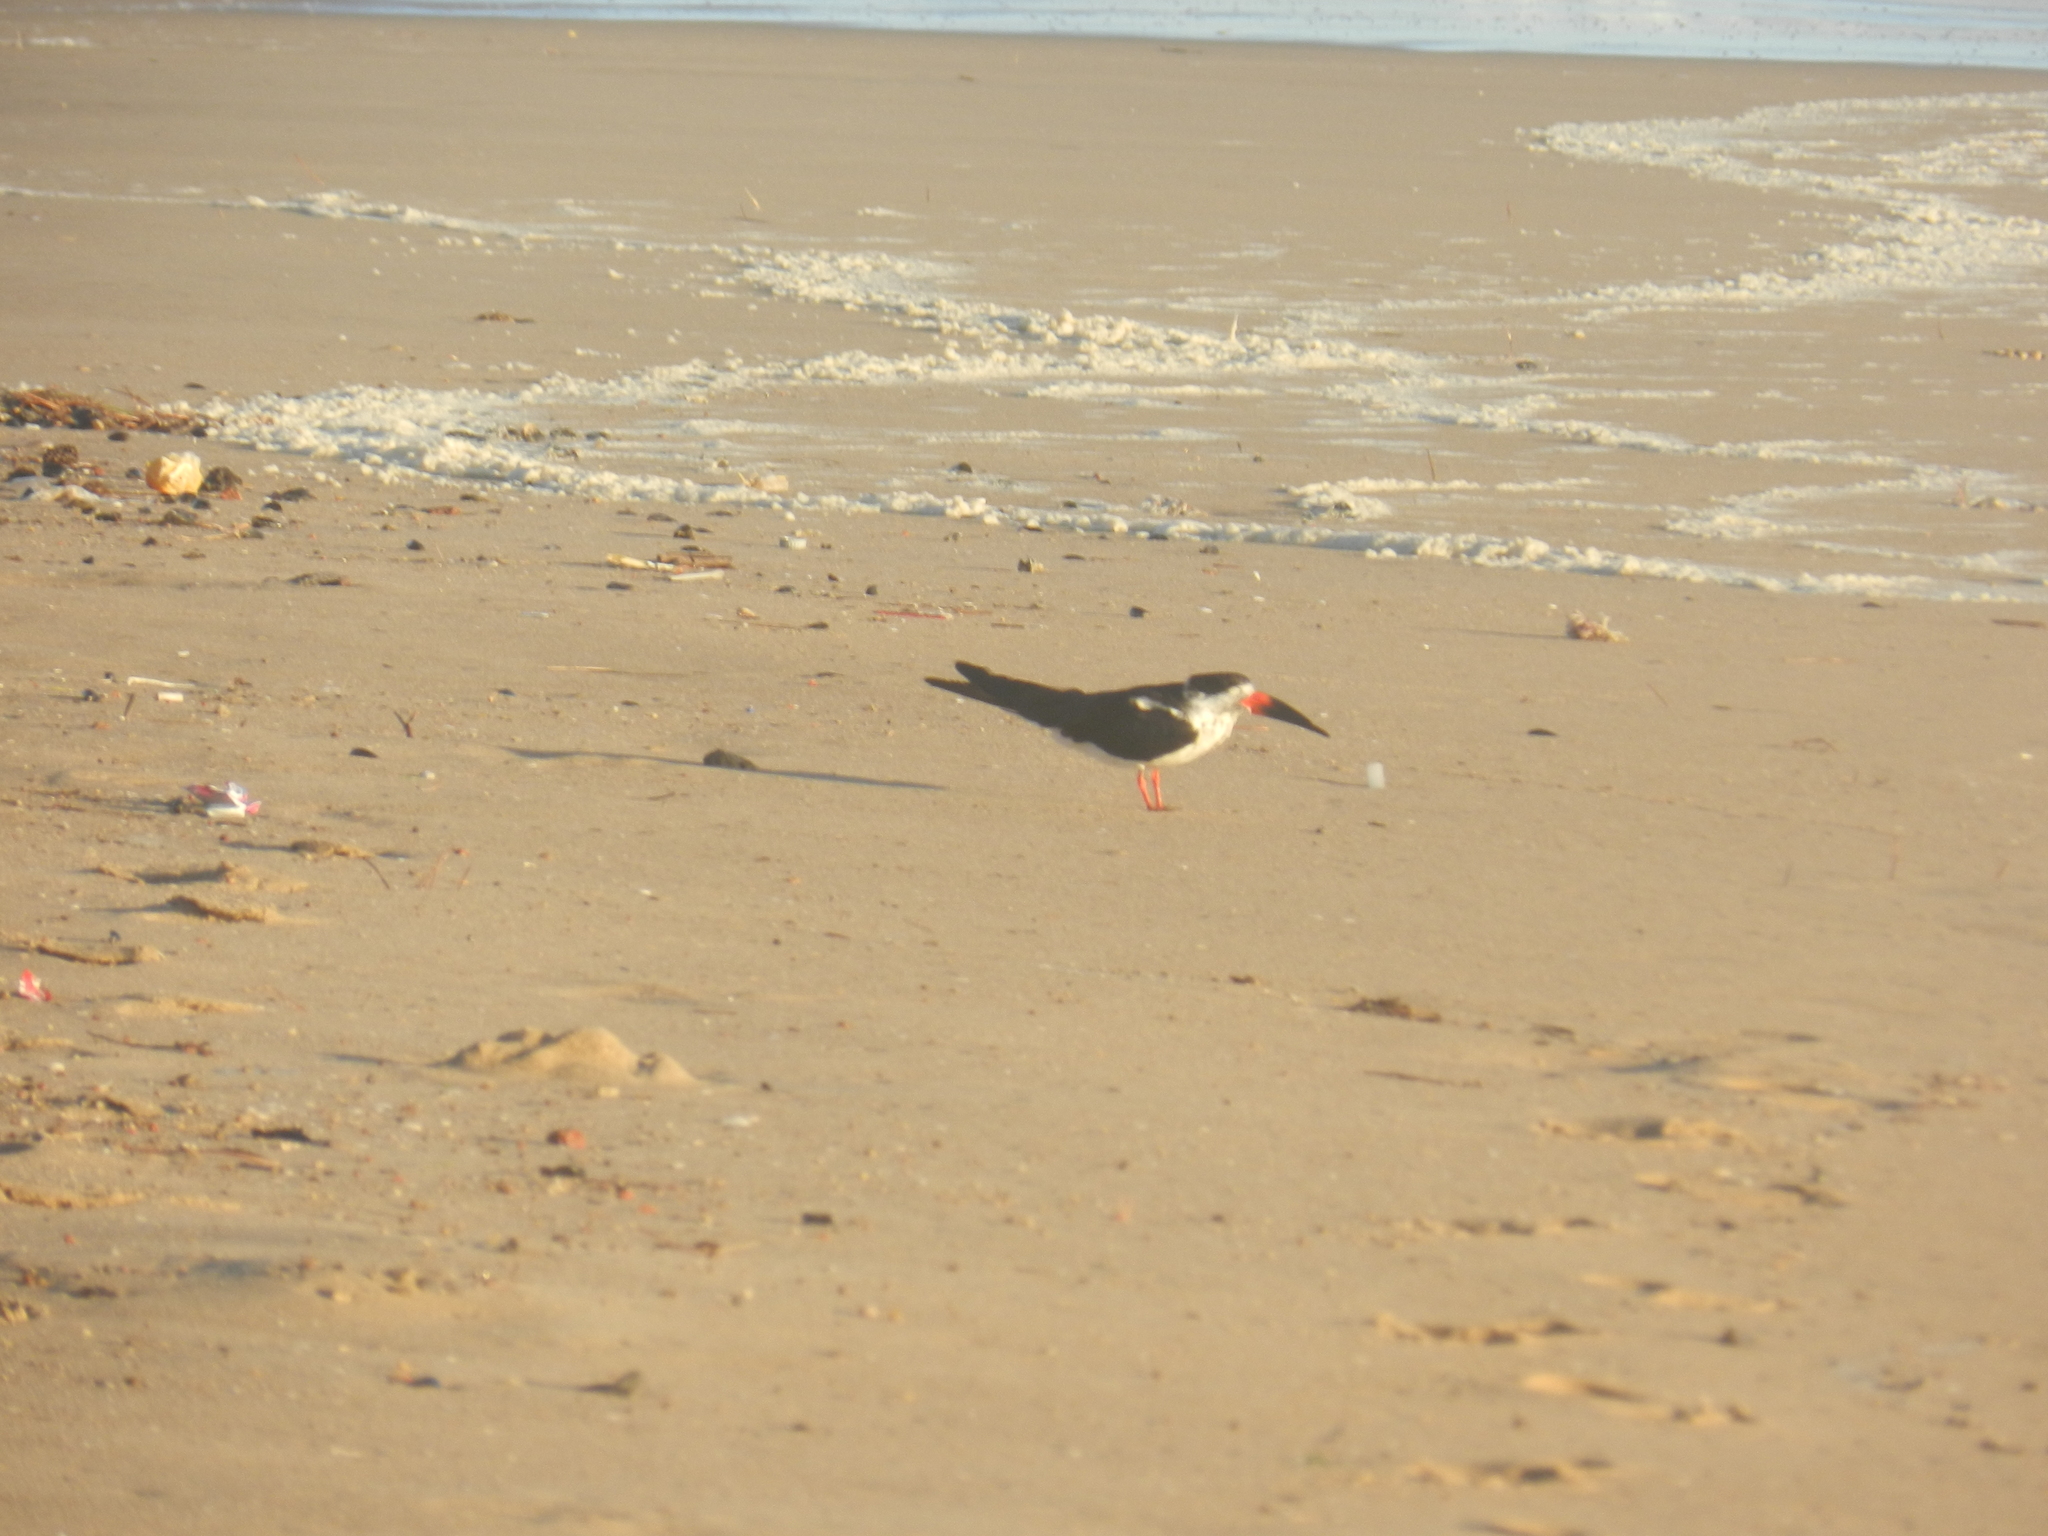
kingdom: Animalia
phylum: Chordata
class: Aves
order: Charadriiformes
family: Laridae
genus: Rynchops
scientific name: Rynchops niger
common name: Black skimmer
